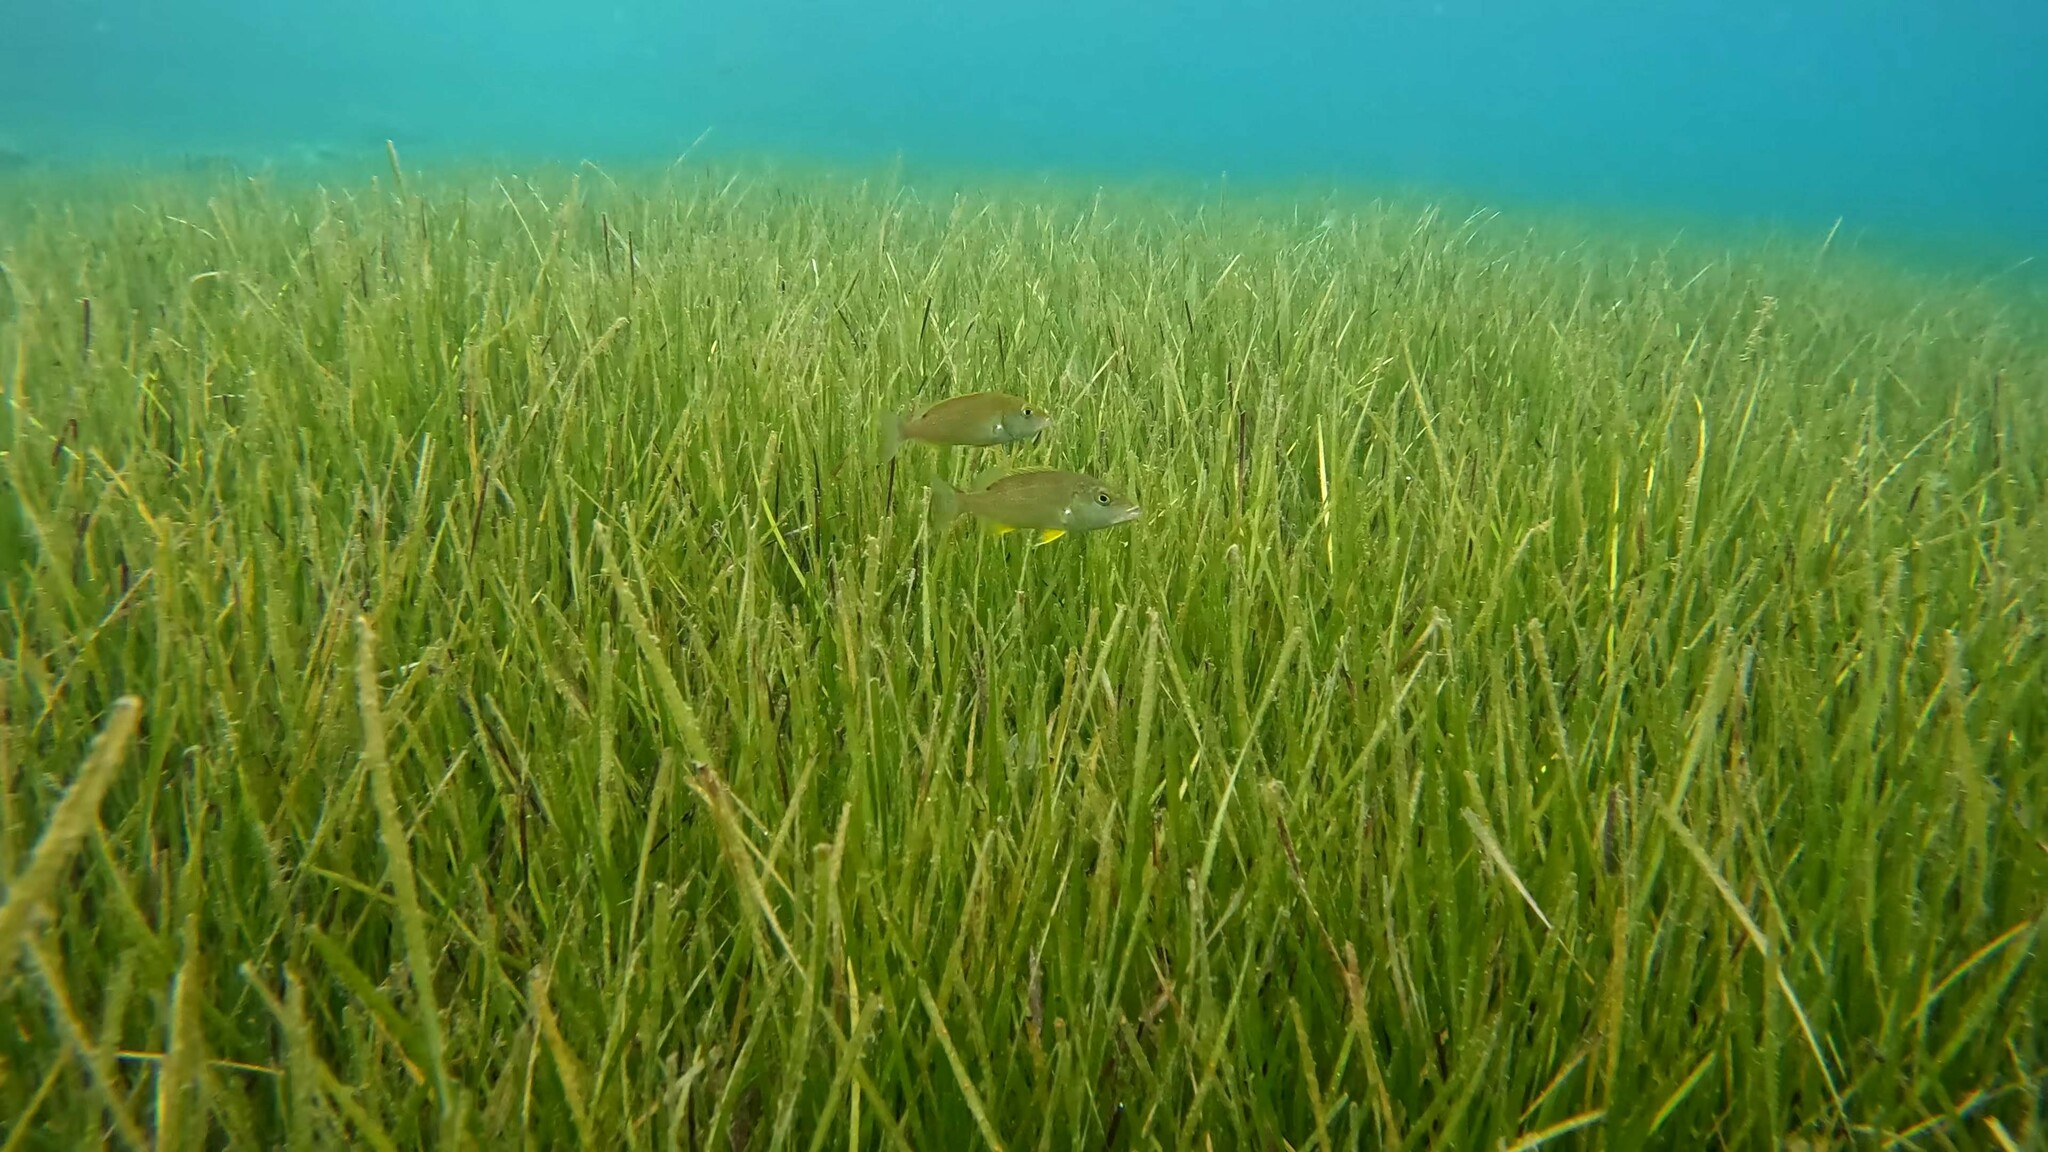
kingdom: Animalia
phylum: Chordata
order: Perciformes
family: Sparidae
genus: Dentex
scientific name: Dentex dentex
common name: Dentex
